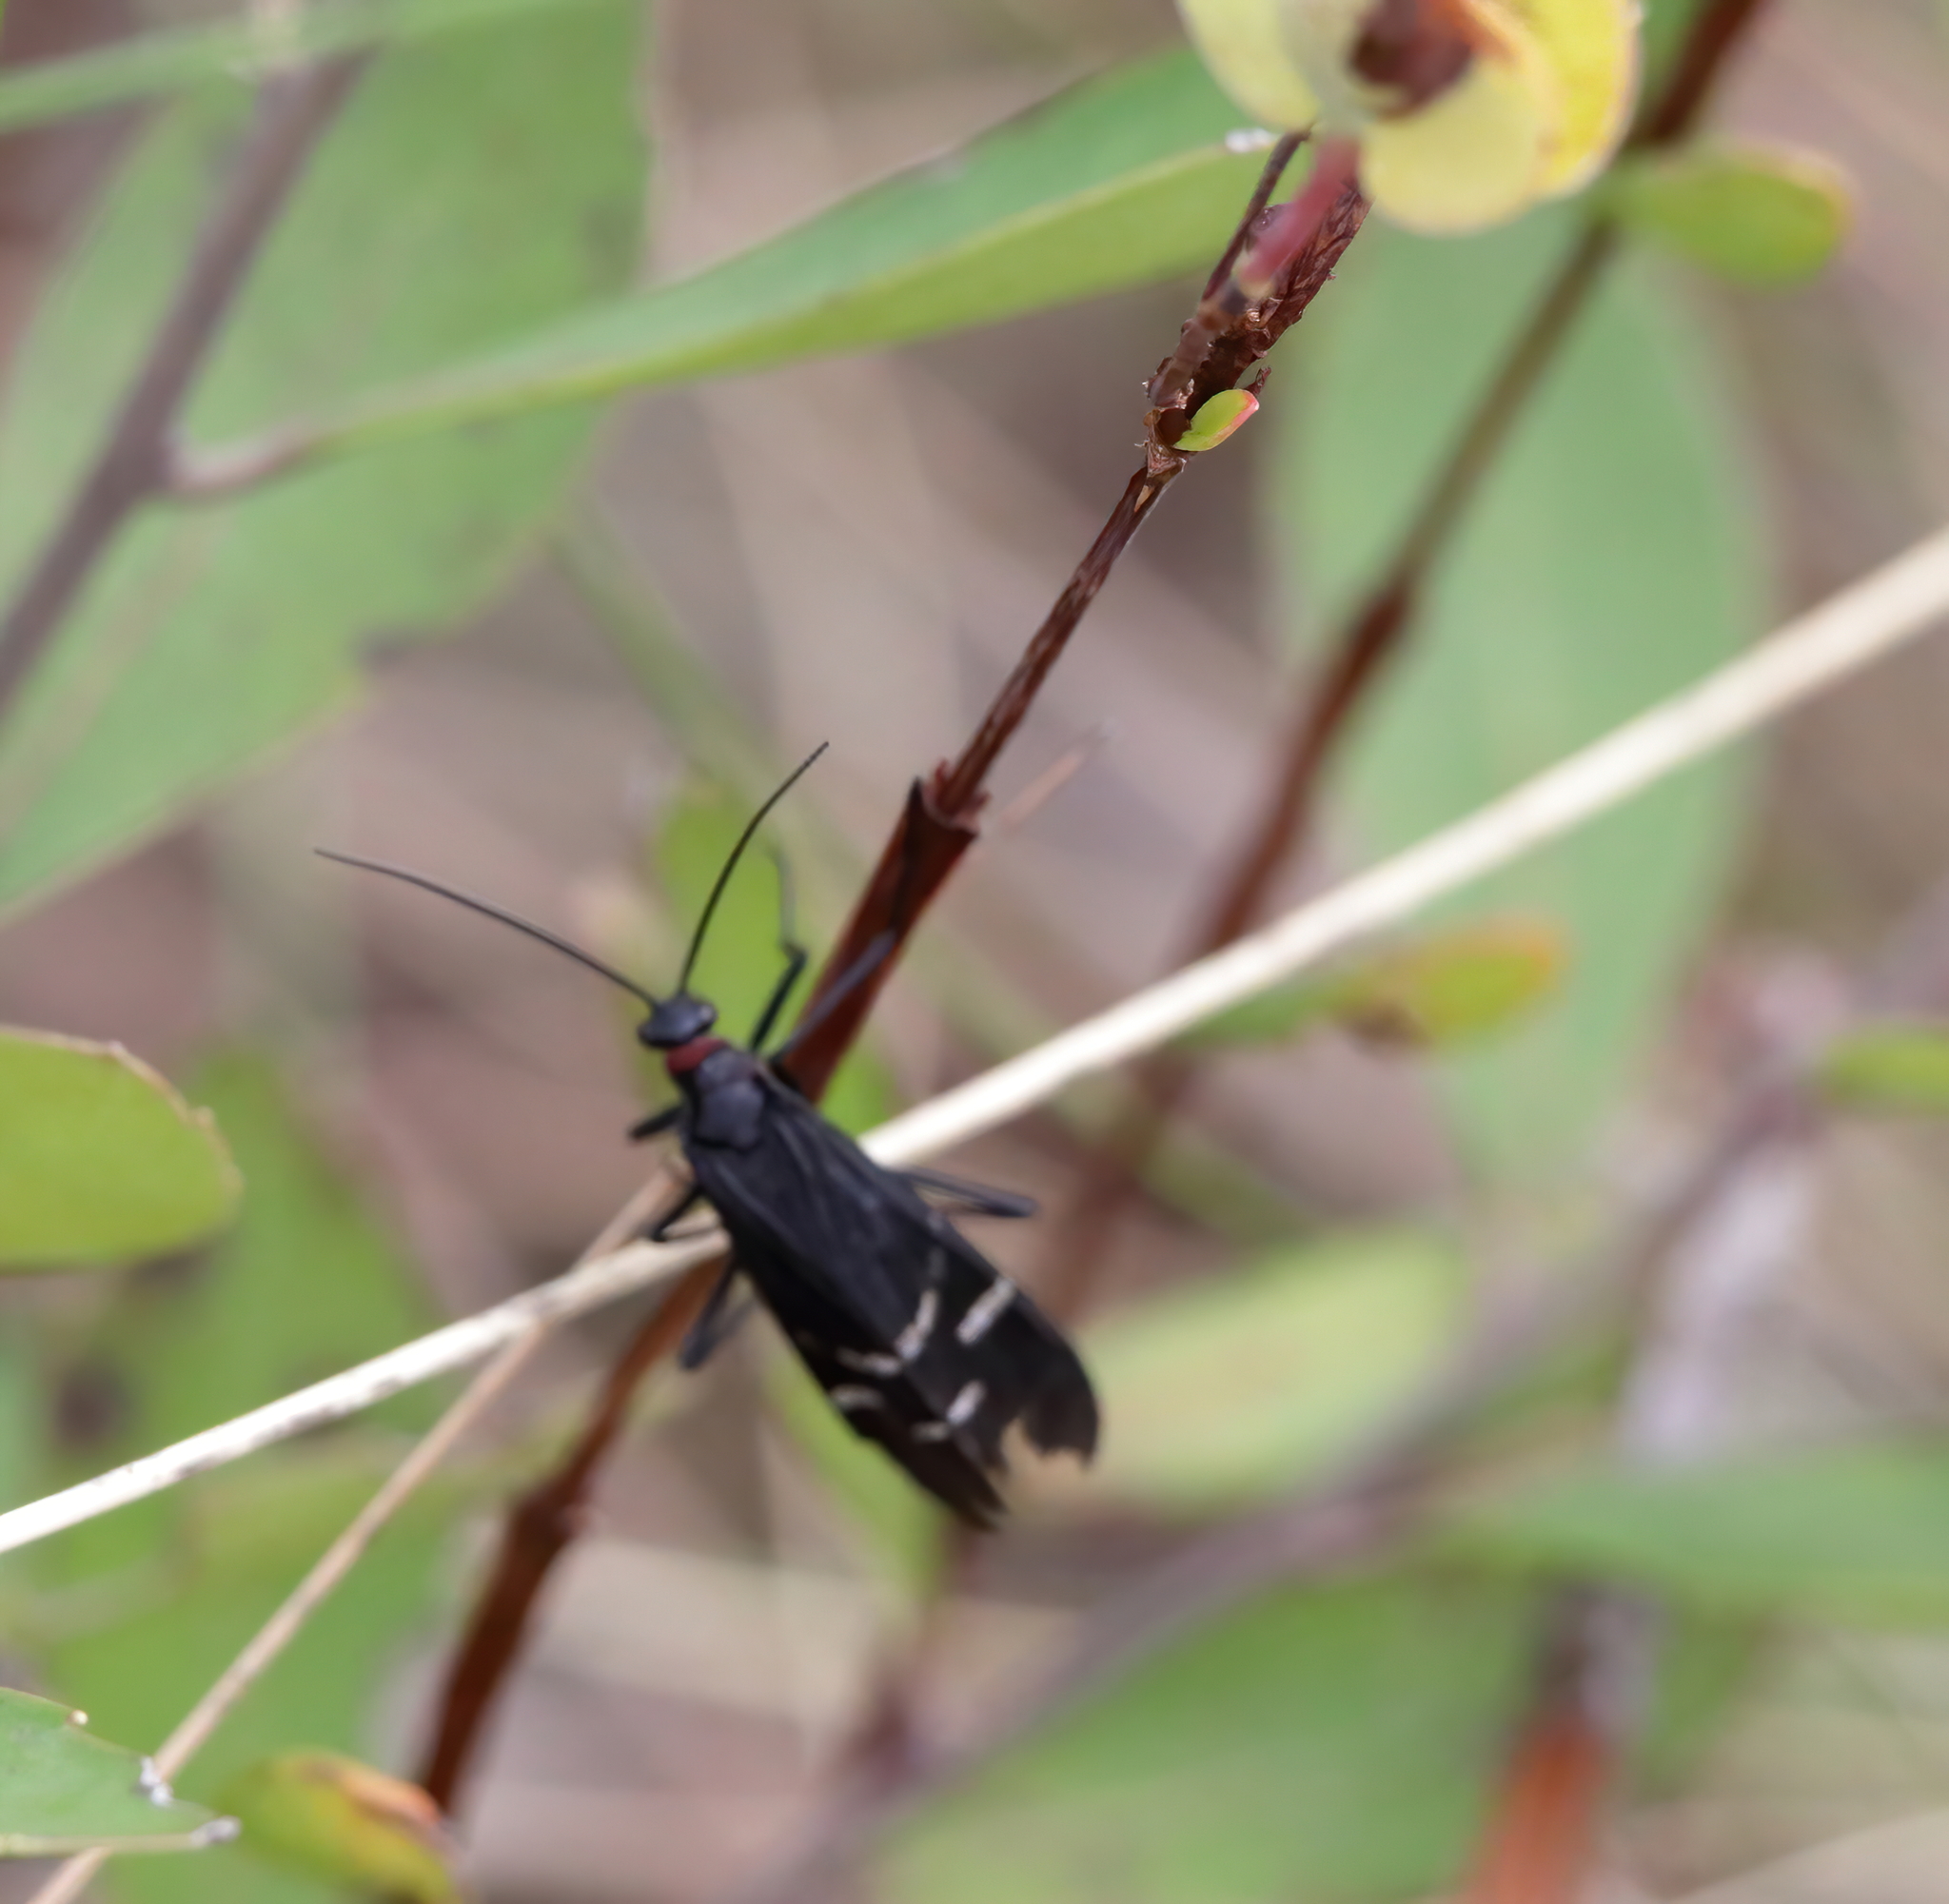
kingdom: Animalia
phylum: Arthropoda
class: Insecta
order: Mecoptera
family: Panorpidae
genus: Panorpa
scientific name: Panorpa lugubris
